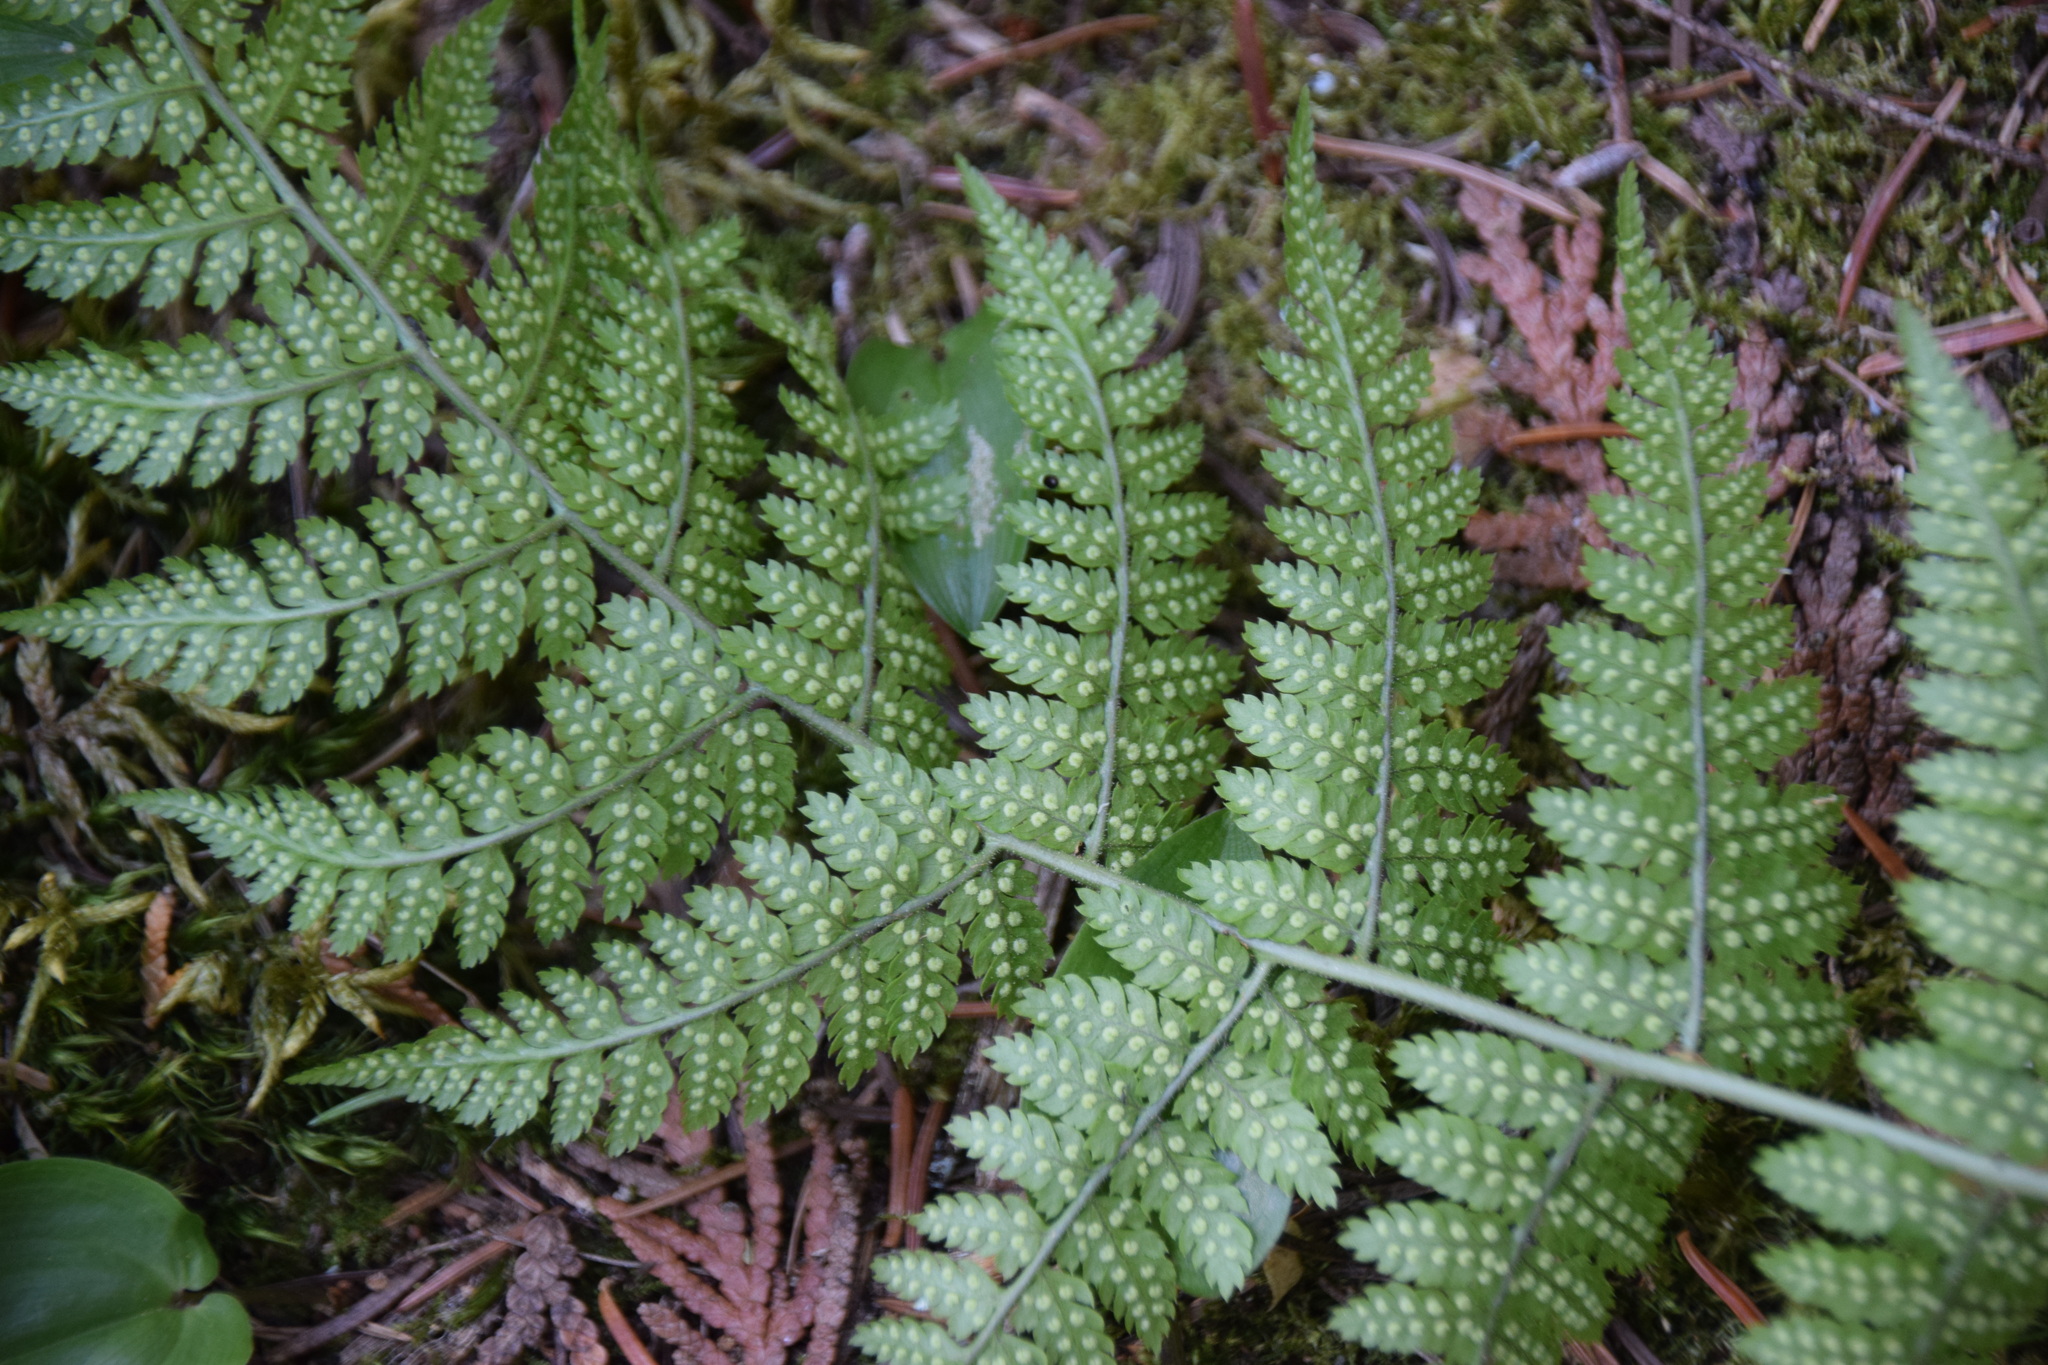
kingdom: Plantae
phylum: Tracheophyta
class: Polypodiopsida
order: Polypodiales
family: Dryopteridaceae
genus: Dryopteris
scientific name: Dryopteris intermedia
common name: Evergreen wood fern
